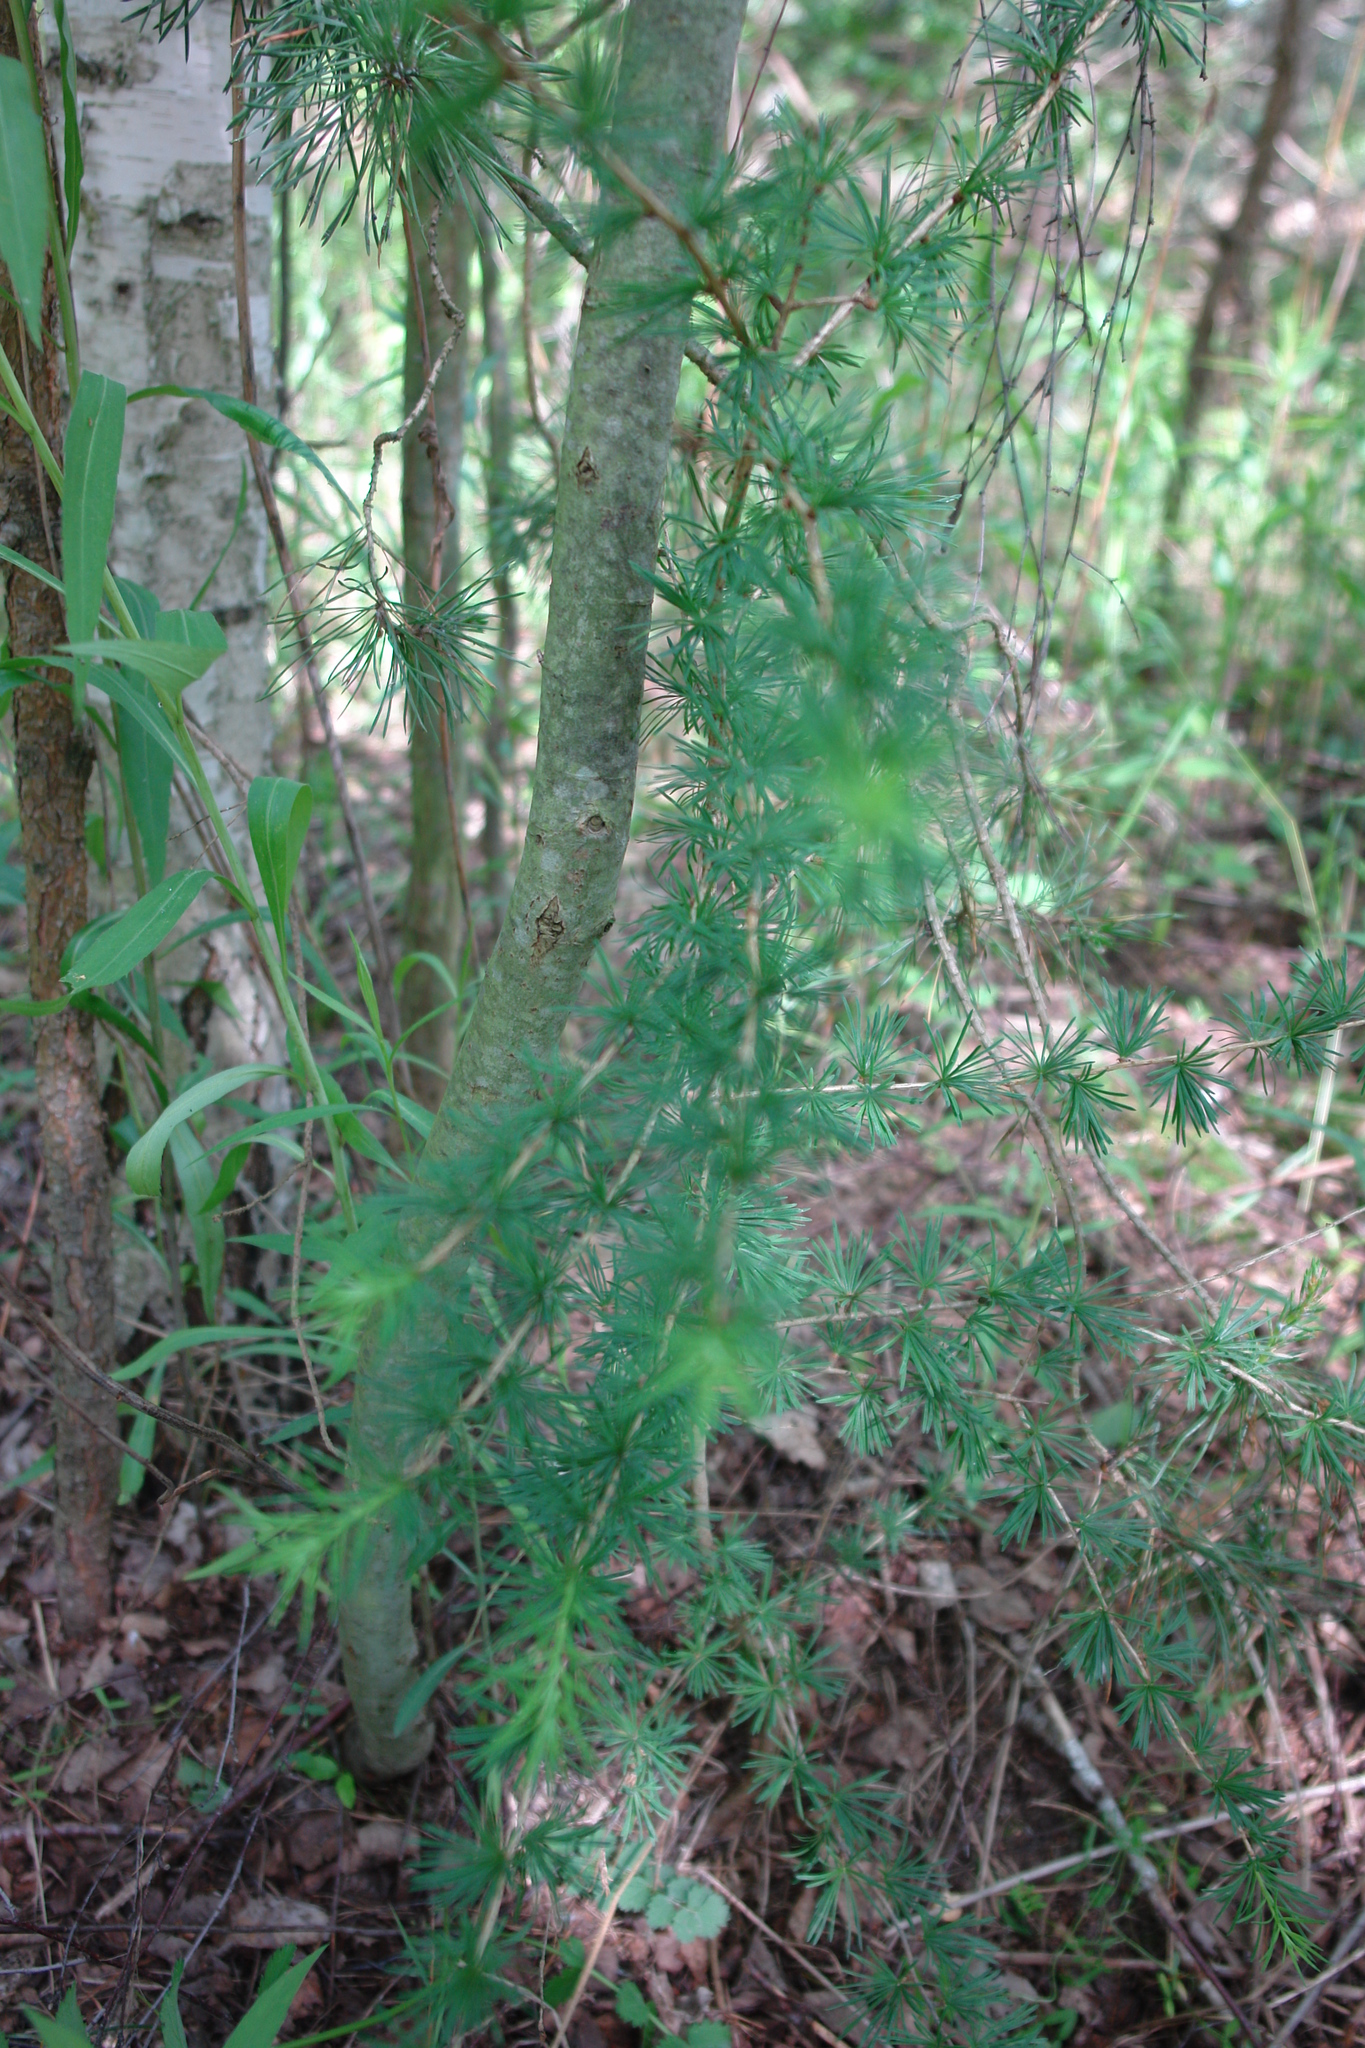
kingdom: Plantae
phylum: Tracheophyta
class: Pinopsida
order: Pinales
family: Pinaceae
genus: Larix
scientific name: Larix decidua
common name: European larch
